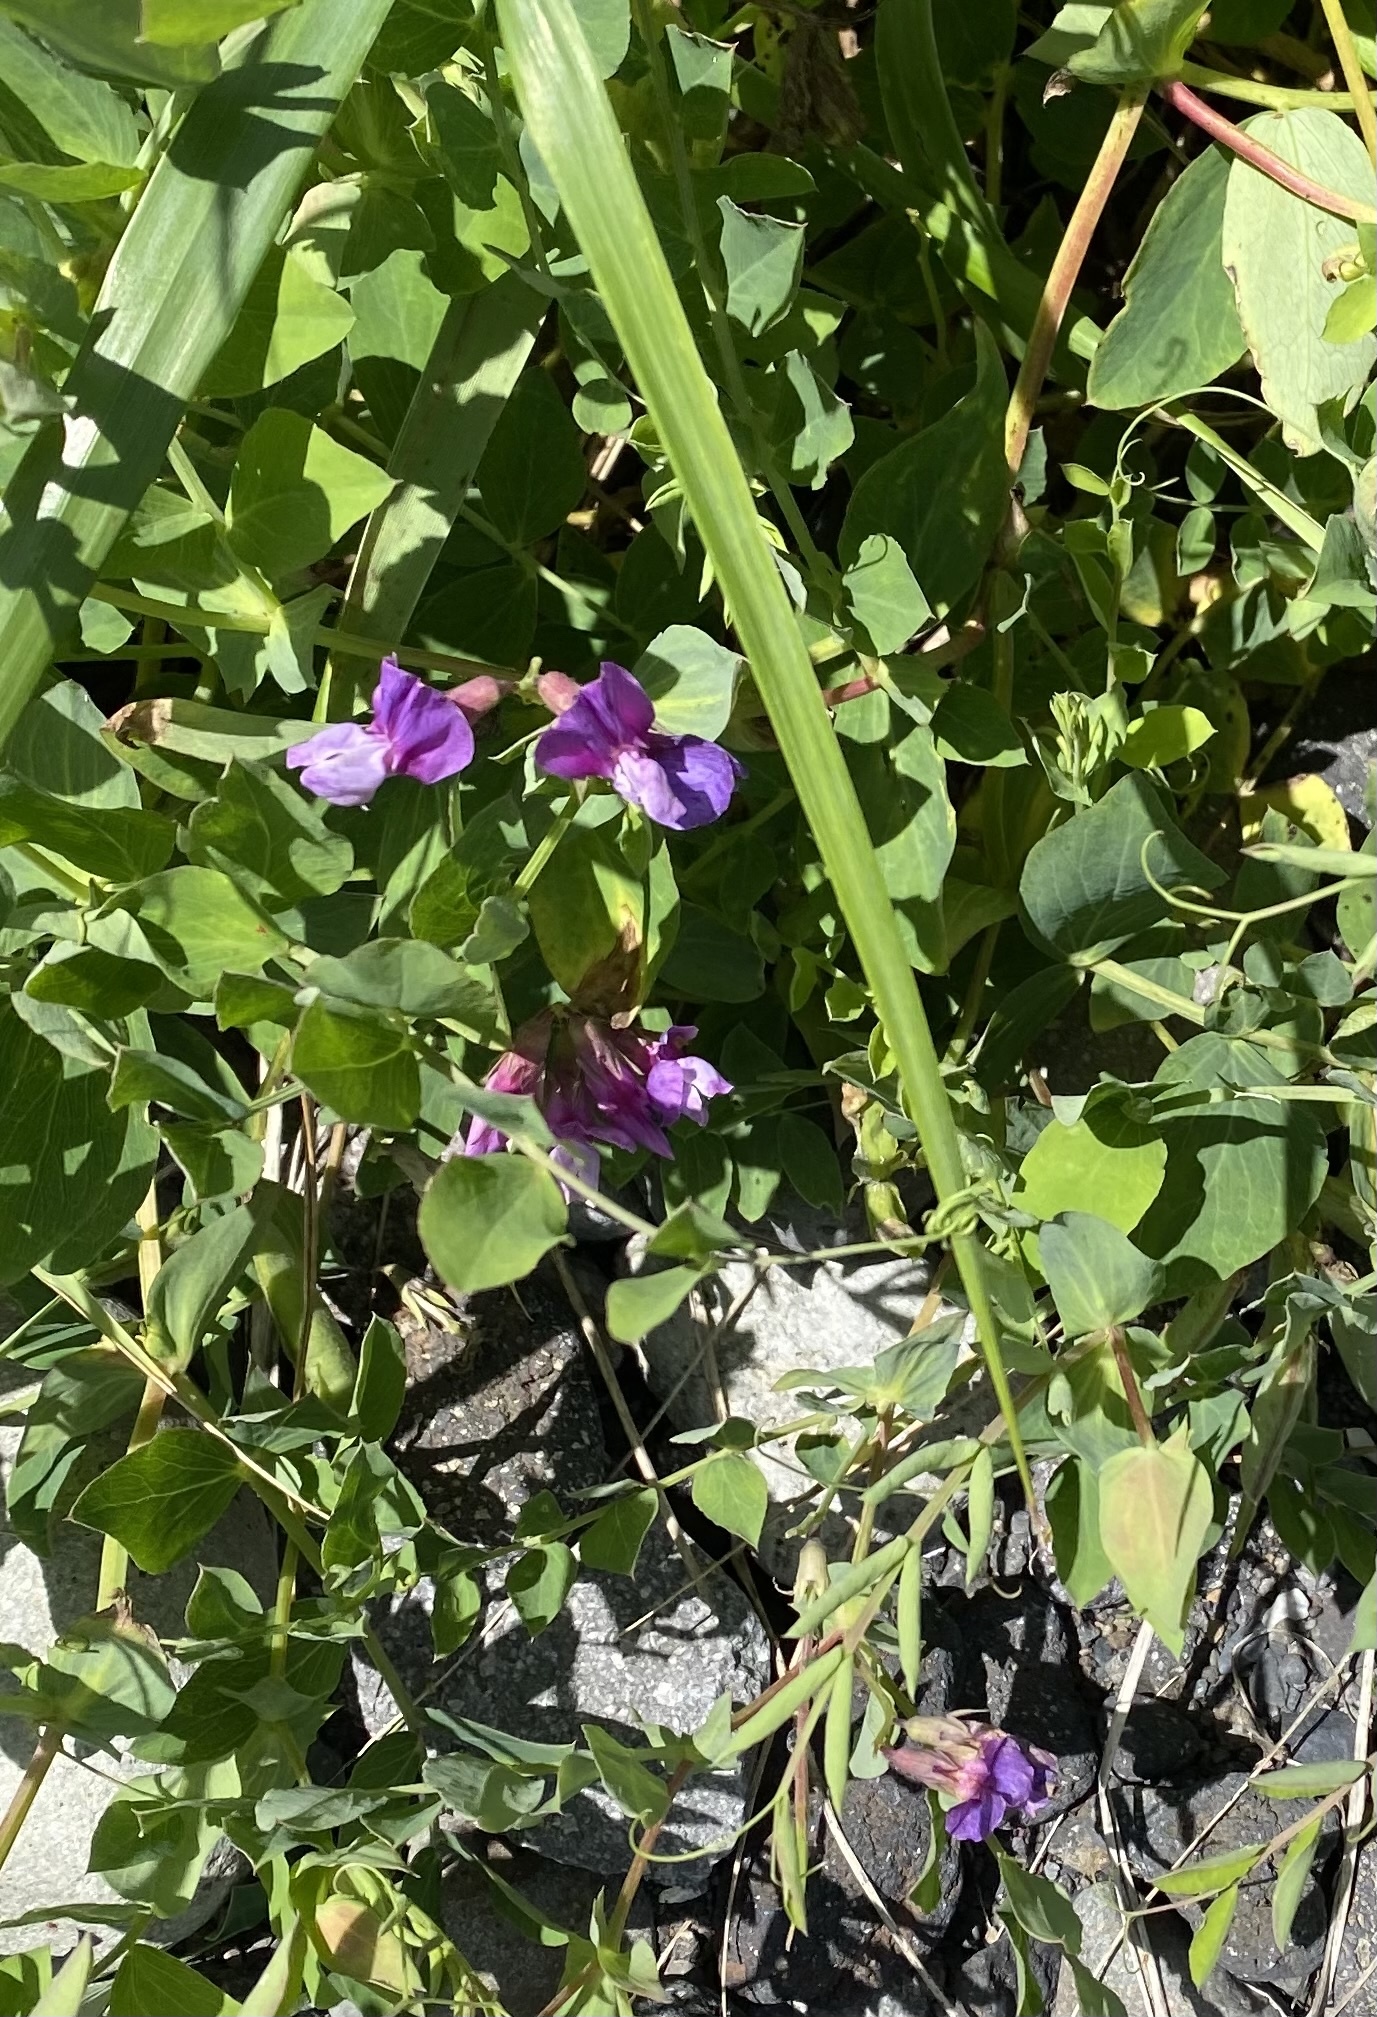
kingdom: Plantae
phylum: Tracheophyta
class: Magnoliopsida
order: Fabales
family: Fabaceae
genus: Lathyrus
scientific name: Lathyrus japonicus
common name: Sea pea
